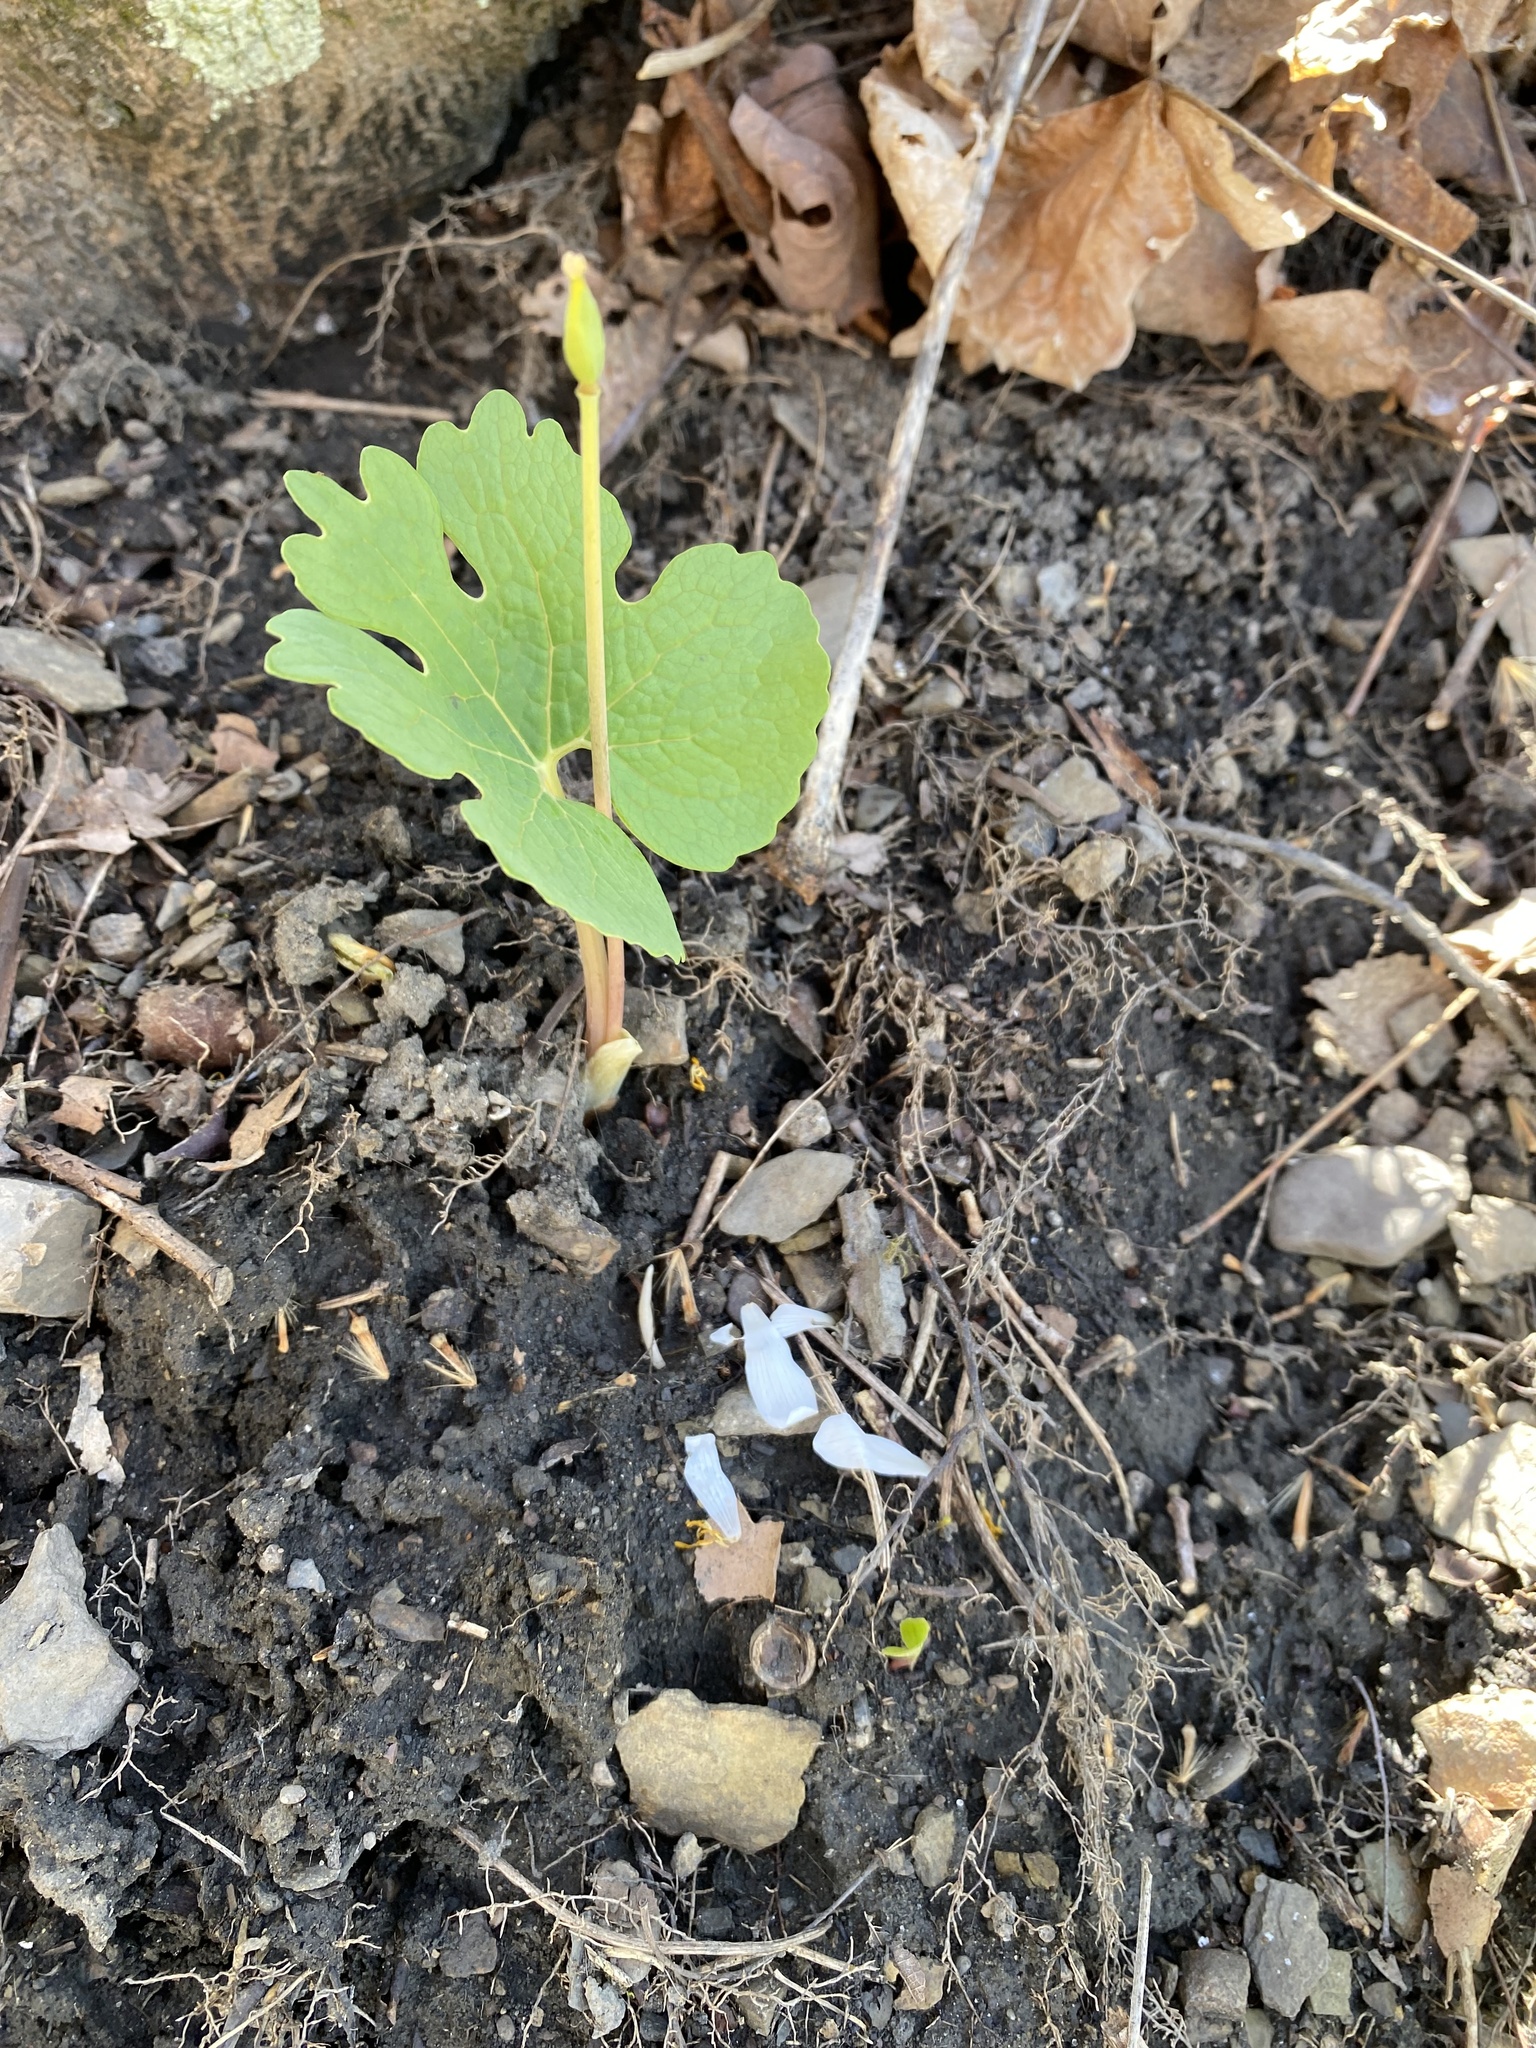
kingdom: Plantae
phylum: Tracheophyta
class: Magnoliopsida
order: Ranunculales
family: Papaveraceae
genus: Sanguinaria
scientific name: Sanguinaria canadensis
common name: Bloodroot
